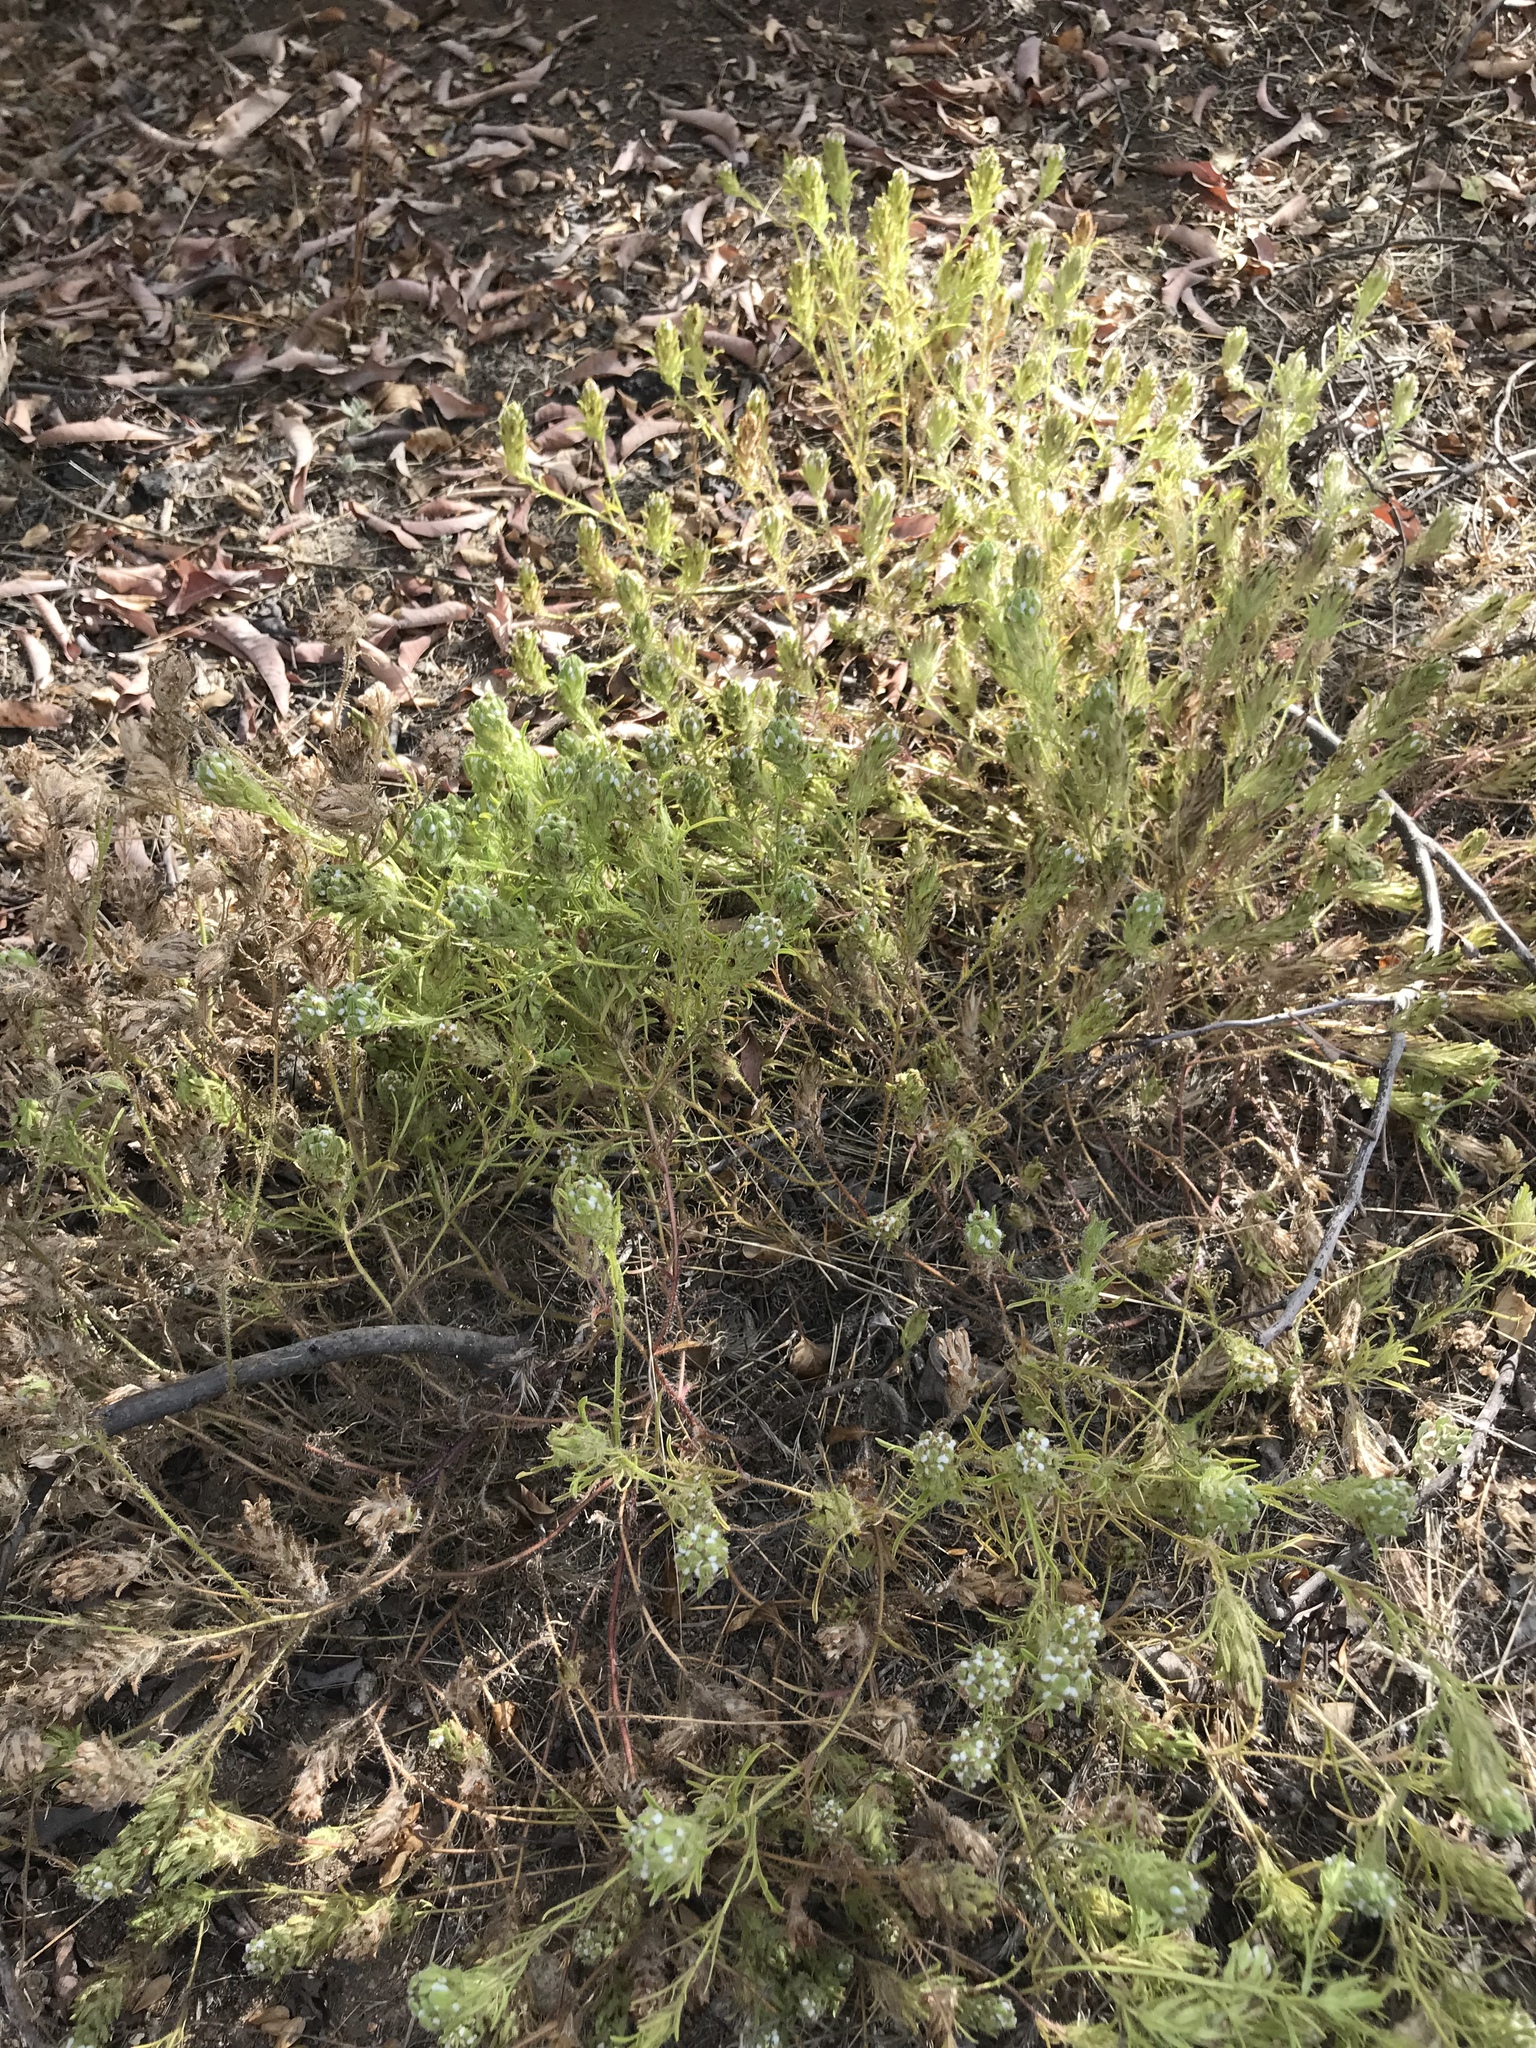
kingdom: Plantae
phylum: Tracheophyta
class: Magnoliopsida
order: Lamiales
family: Orobanchaceae
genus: Dicranostegia
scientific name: Dicranostegia orcuttiana
